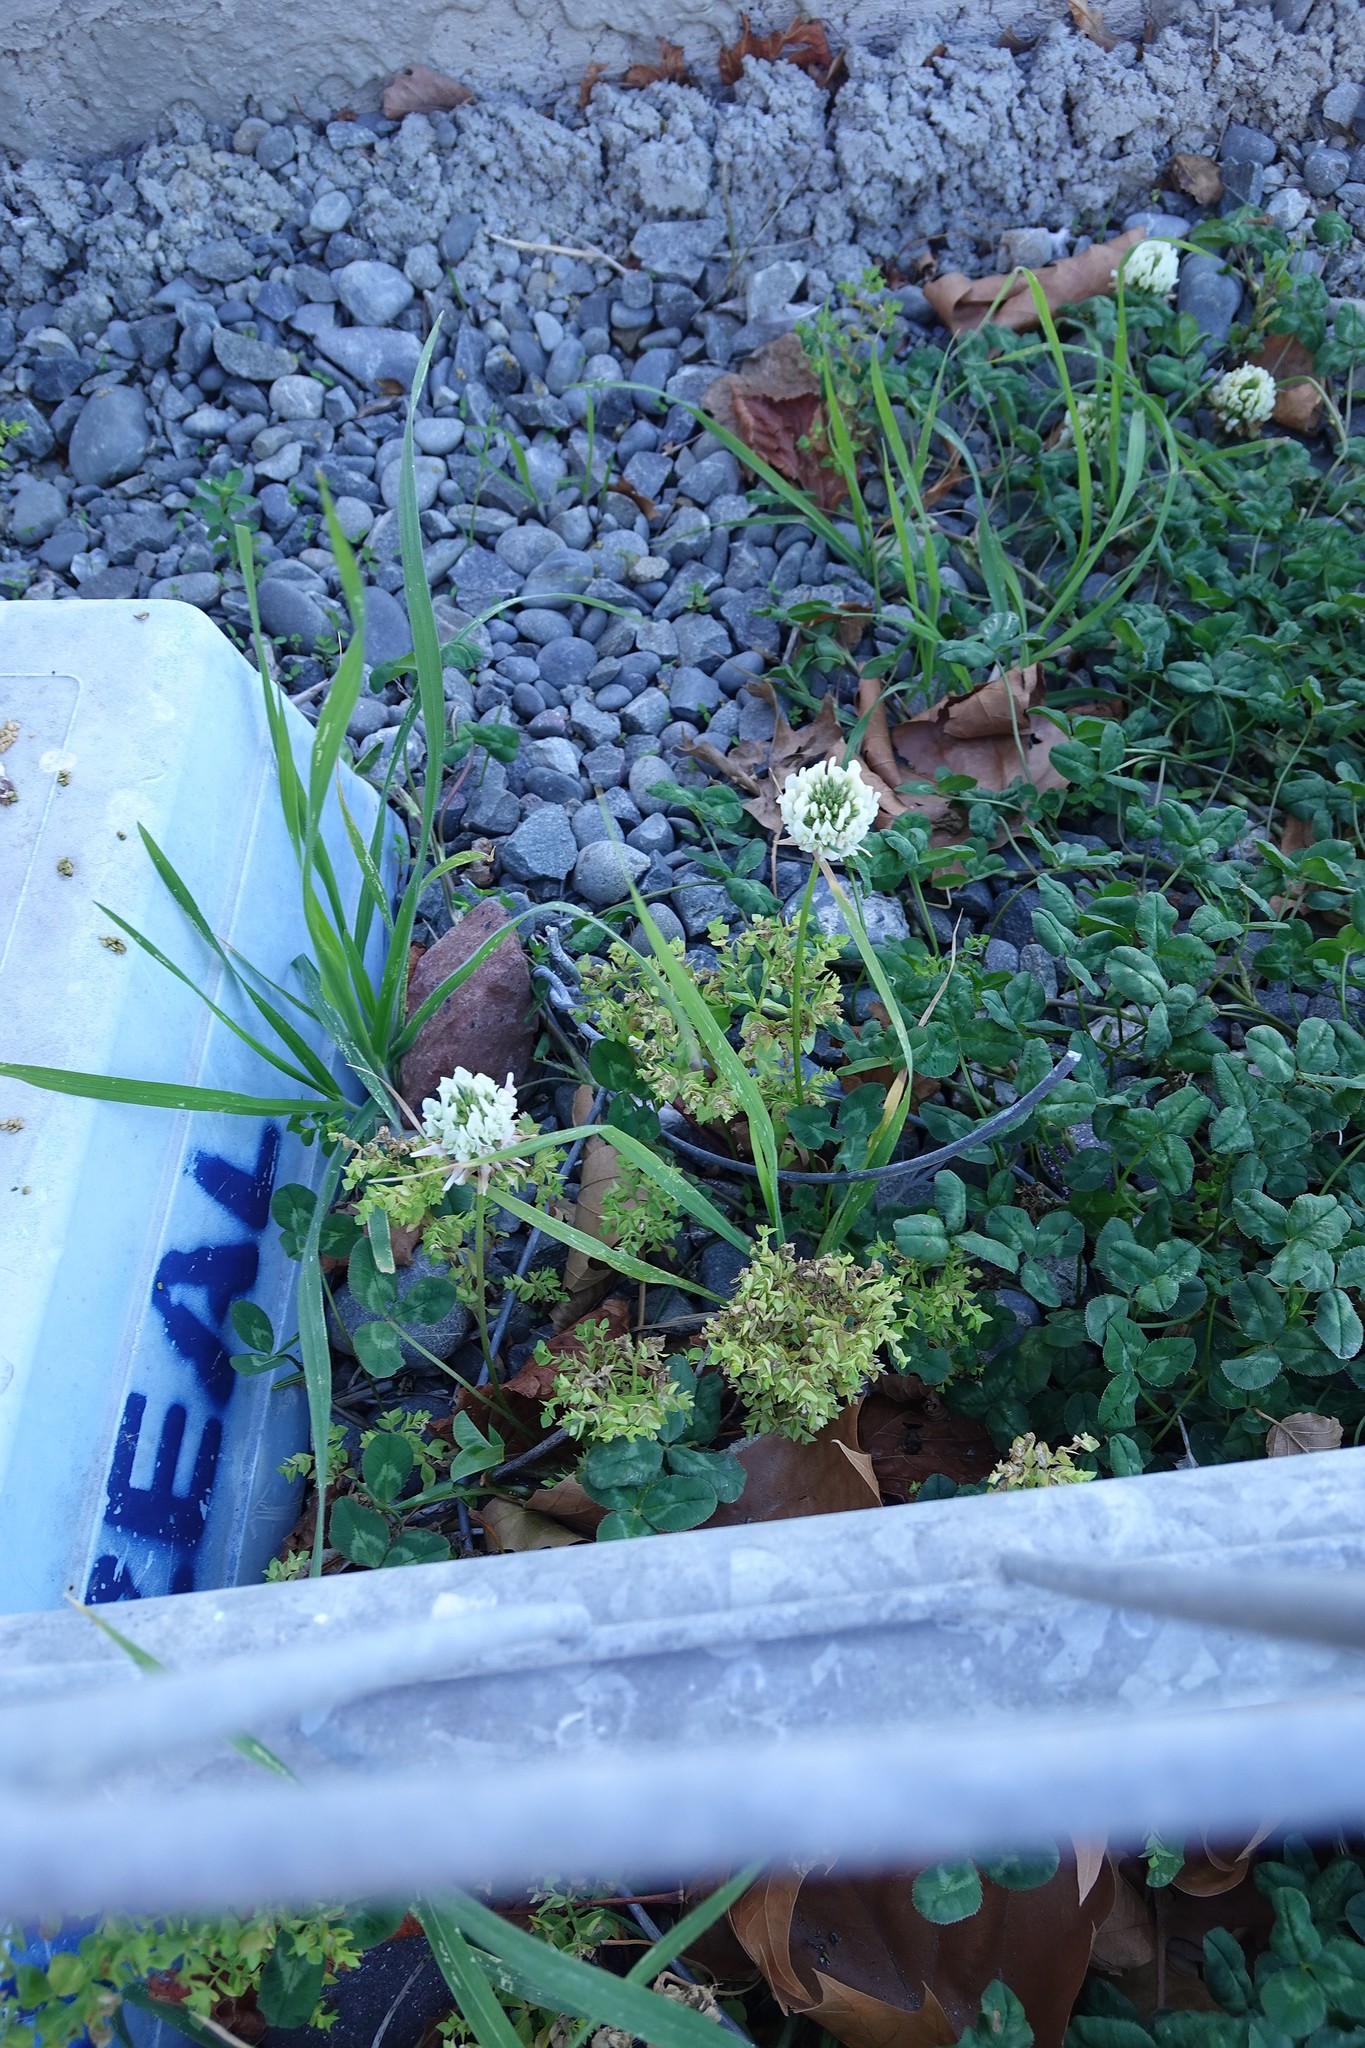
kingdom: Plantae
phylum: Tracheophyta
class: Magnoliopsida
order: Fabales
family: Fabaceae
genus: Trifolium
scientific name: Trifolium repens
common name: White clover
